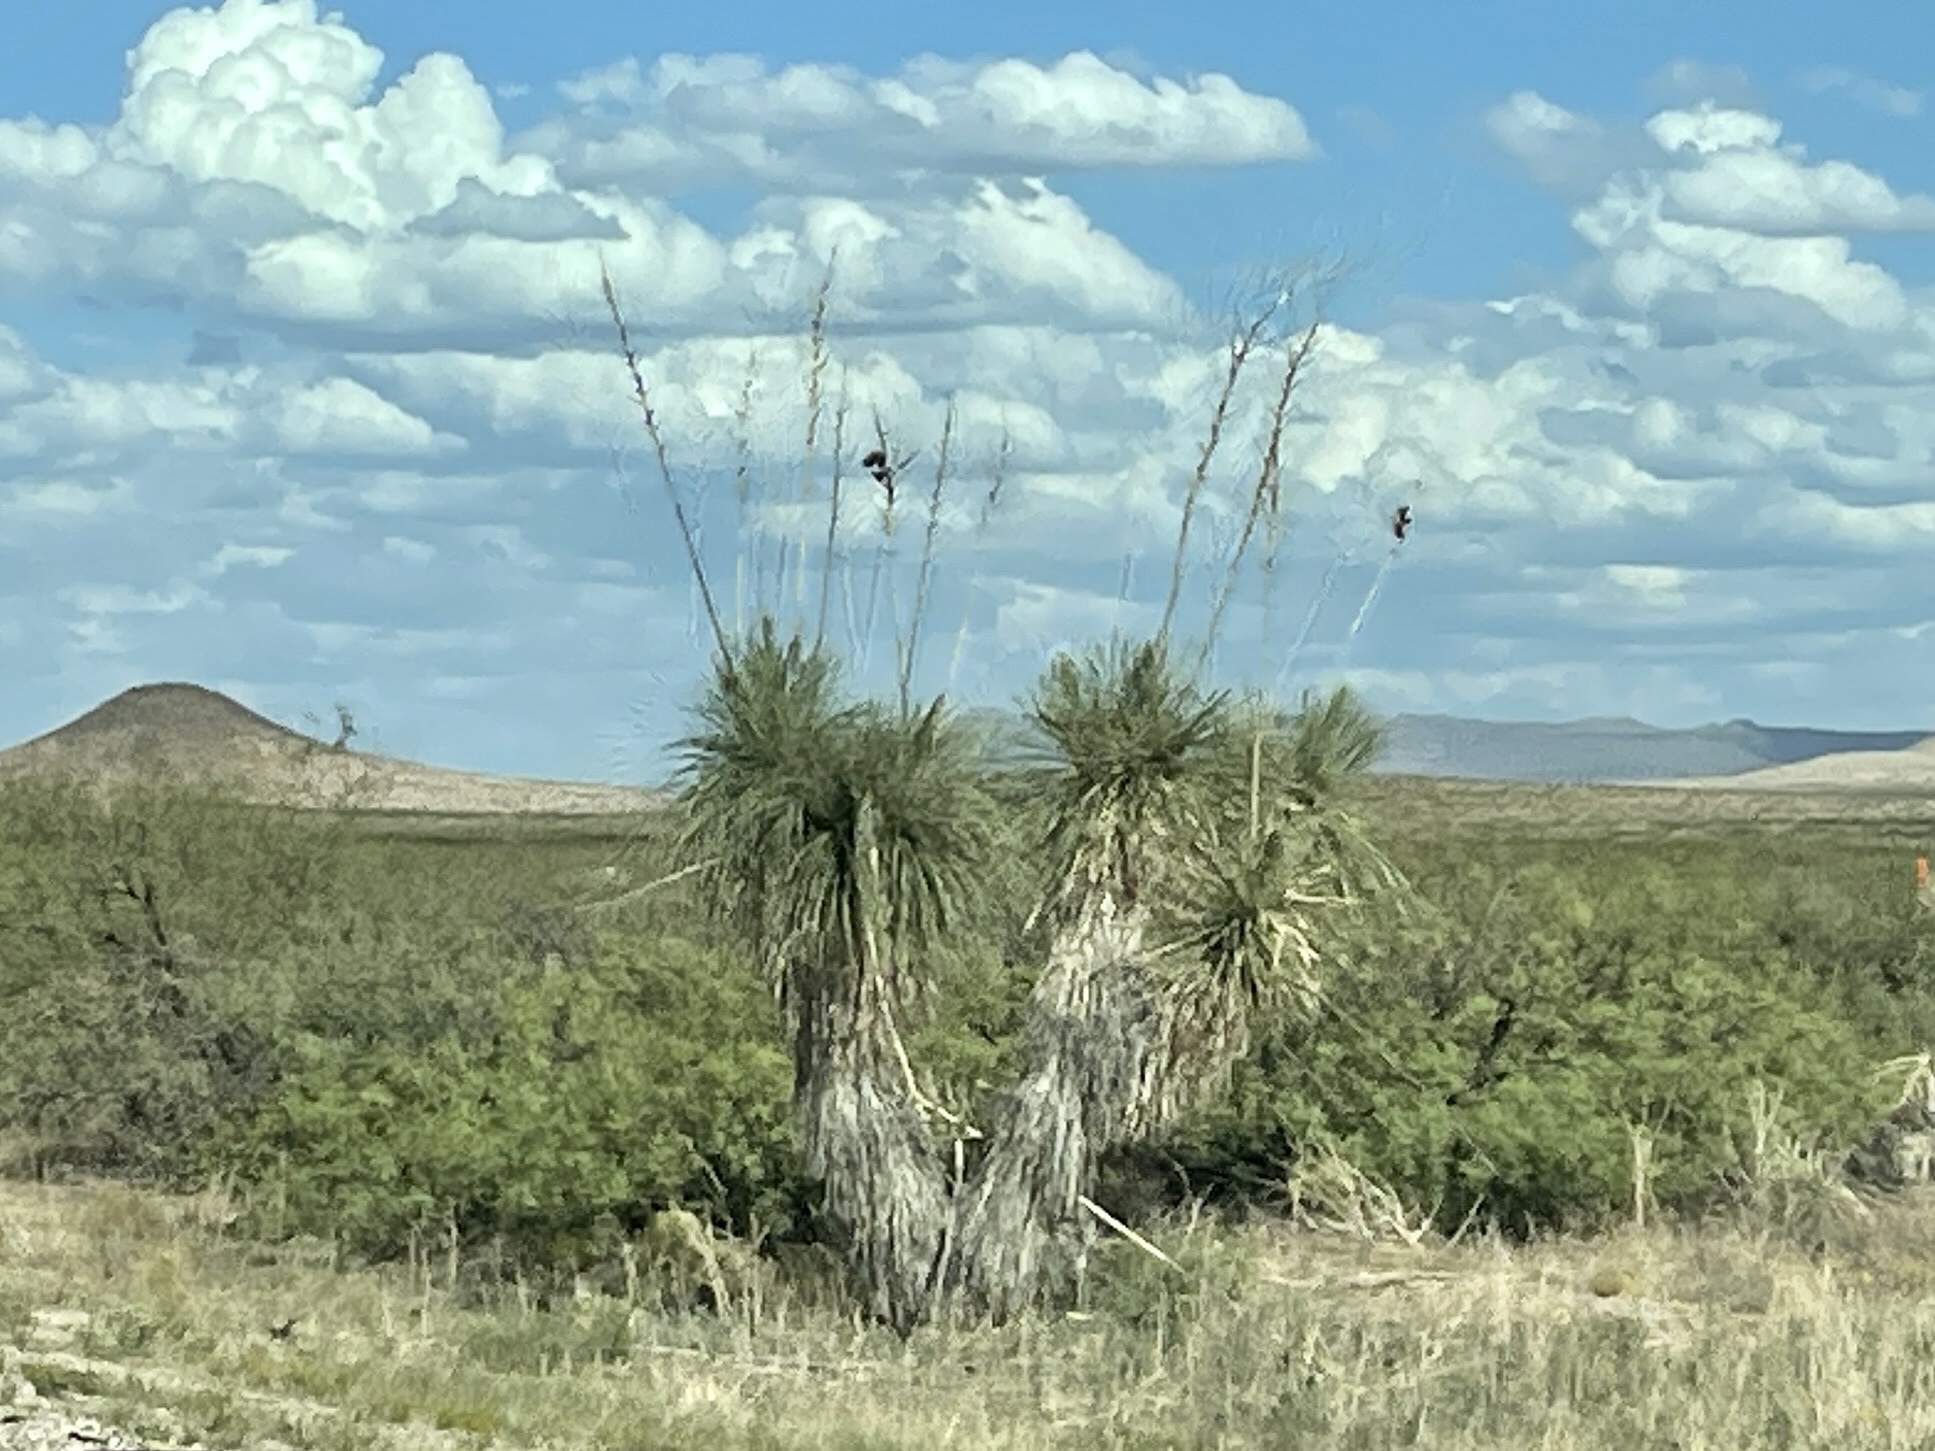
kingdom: Plantae
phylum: Tracheophyta
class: Liliopsida
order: Asparagales
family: Asparagaceae
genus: Yucca
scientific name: Yucca elata
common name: Palmella
